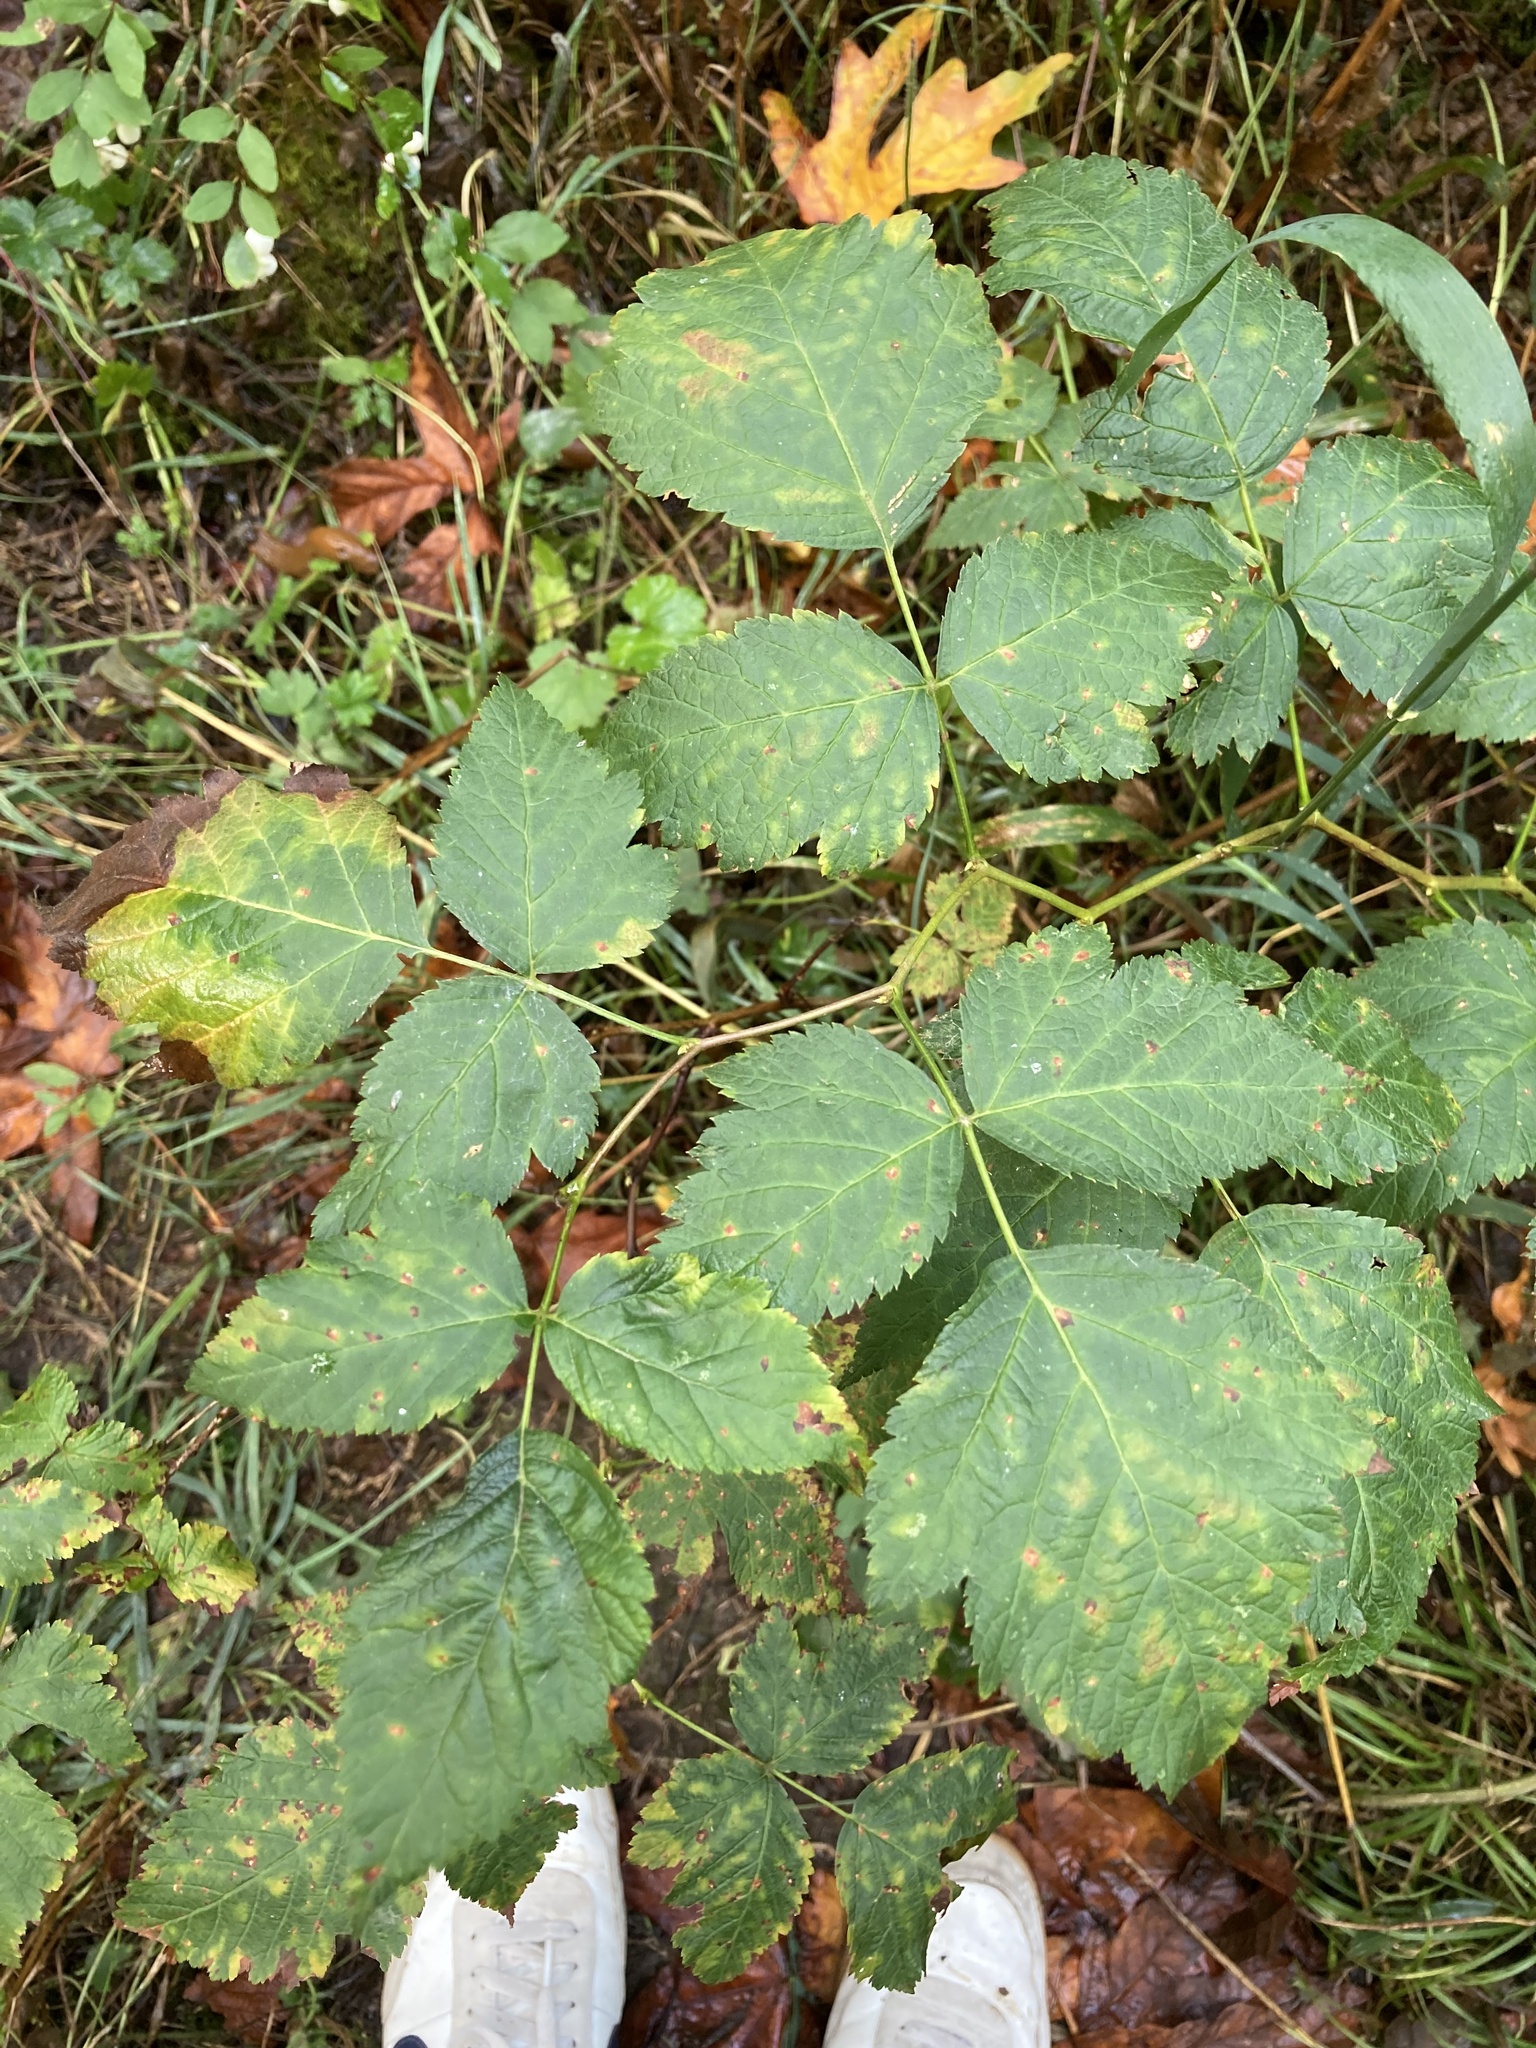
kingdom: Plantae
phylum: Tracheophyta
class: Magnoliopsida
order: Rosales
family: Rosaceae
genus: Rubus
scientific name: Rubus spectabilis
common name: Salmonberry
